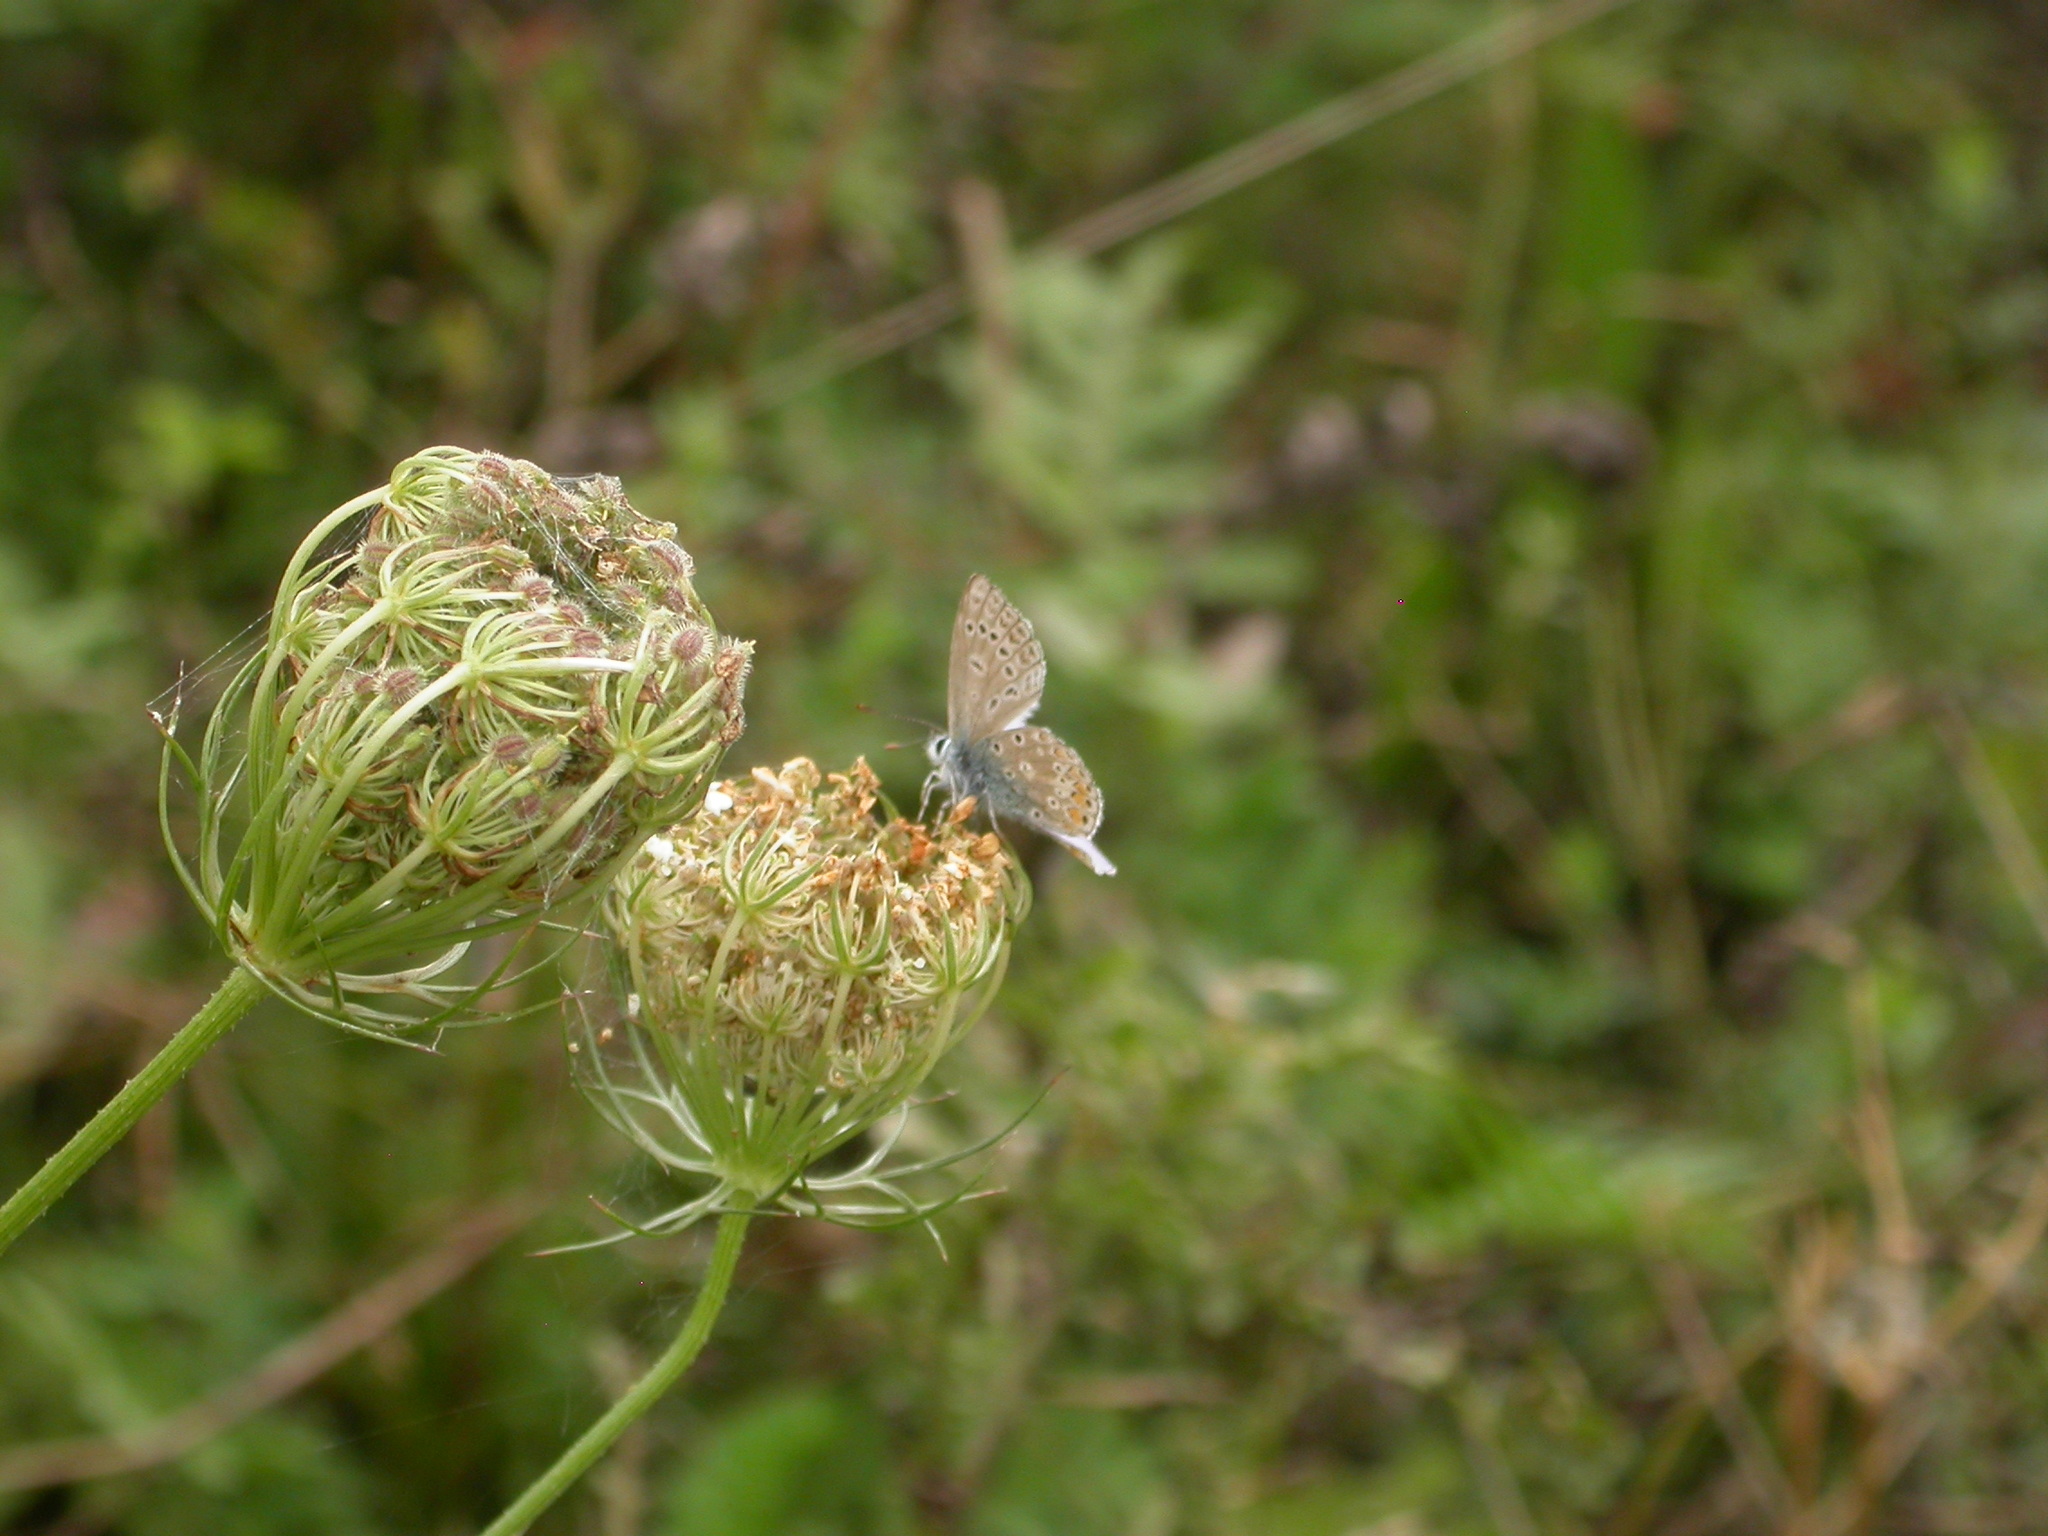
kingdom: Animalia
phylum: Arthropoda
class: Insecta
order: Lepidoptera
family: Lycaenidae
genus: Polyommatus
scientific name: Polyommatus icarus
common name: Common blue
